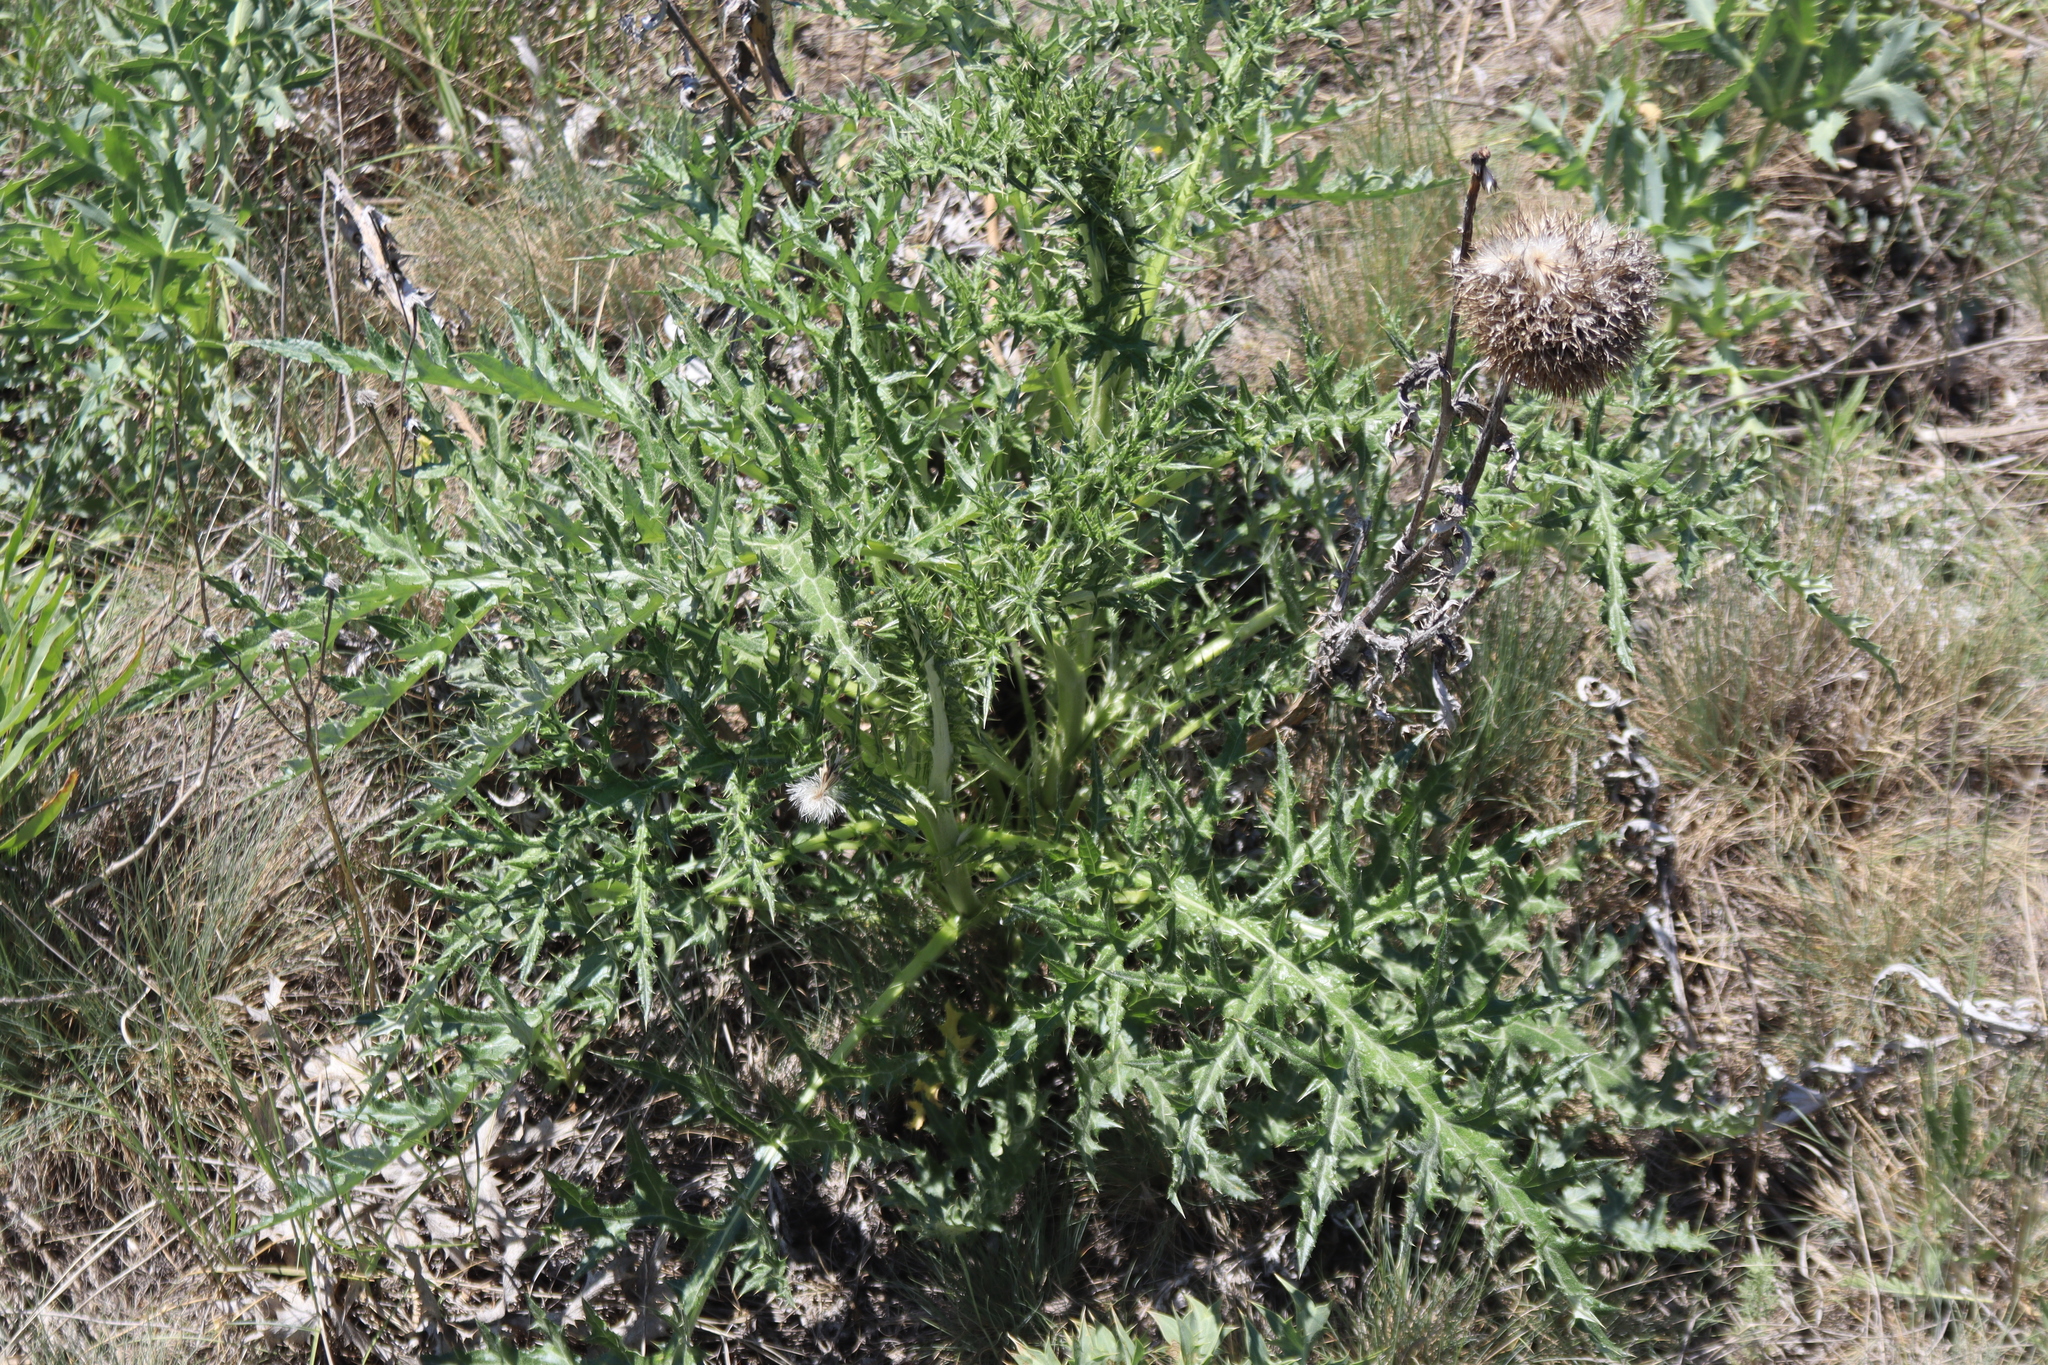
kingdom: Plantae
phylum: Tracheophyta
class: Magnoliopsida
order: Asterales
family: Asteraceae
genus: Echinops
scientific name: Echinops pungens
